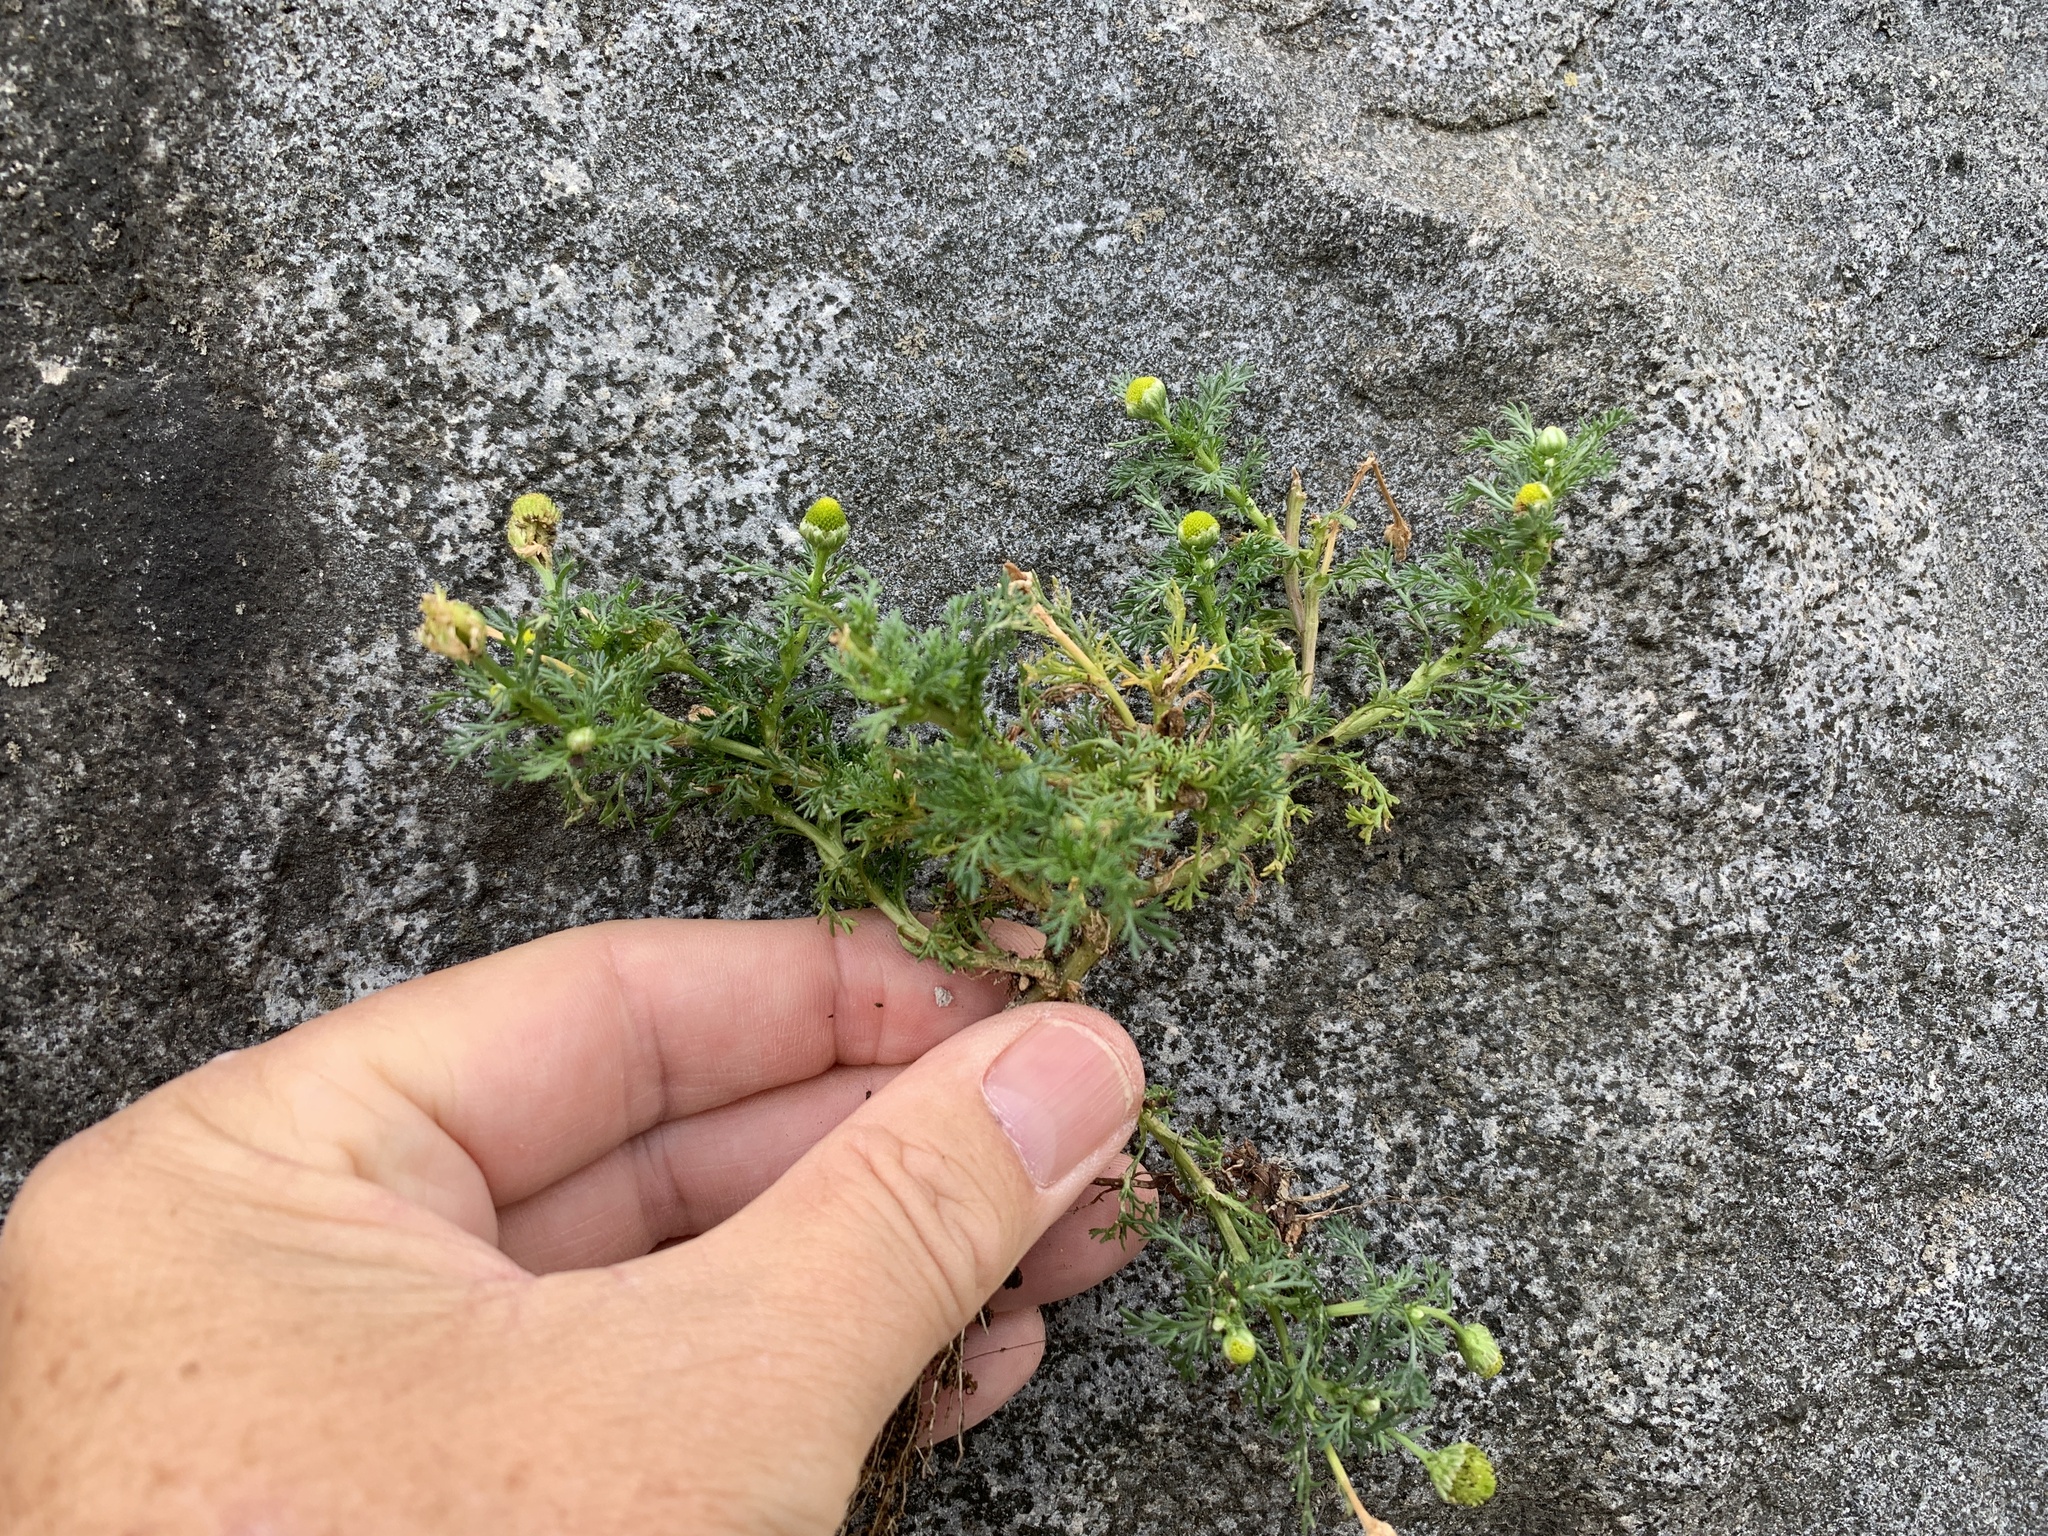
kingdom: Plantae
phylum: Tracheophyta
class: Magnoliopsida
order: Asterales
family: Asteraceae
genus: Matricaria
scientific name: Matricaria discoidea
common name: Disc mayweed
